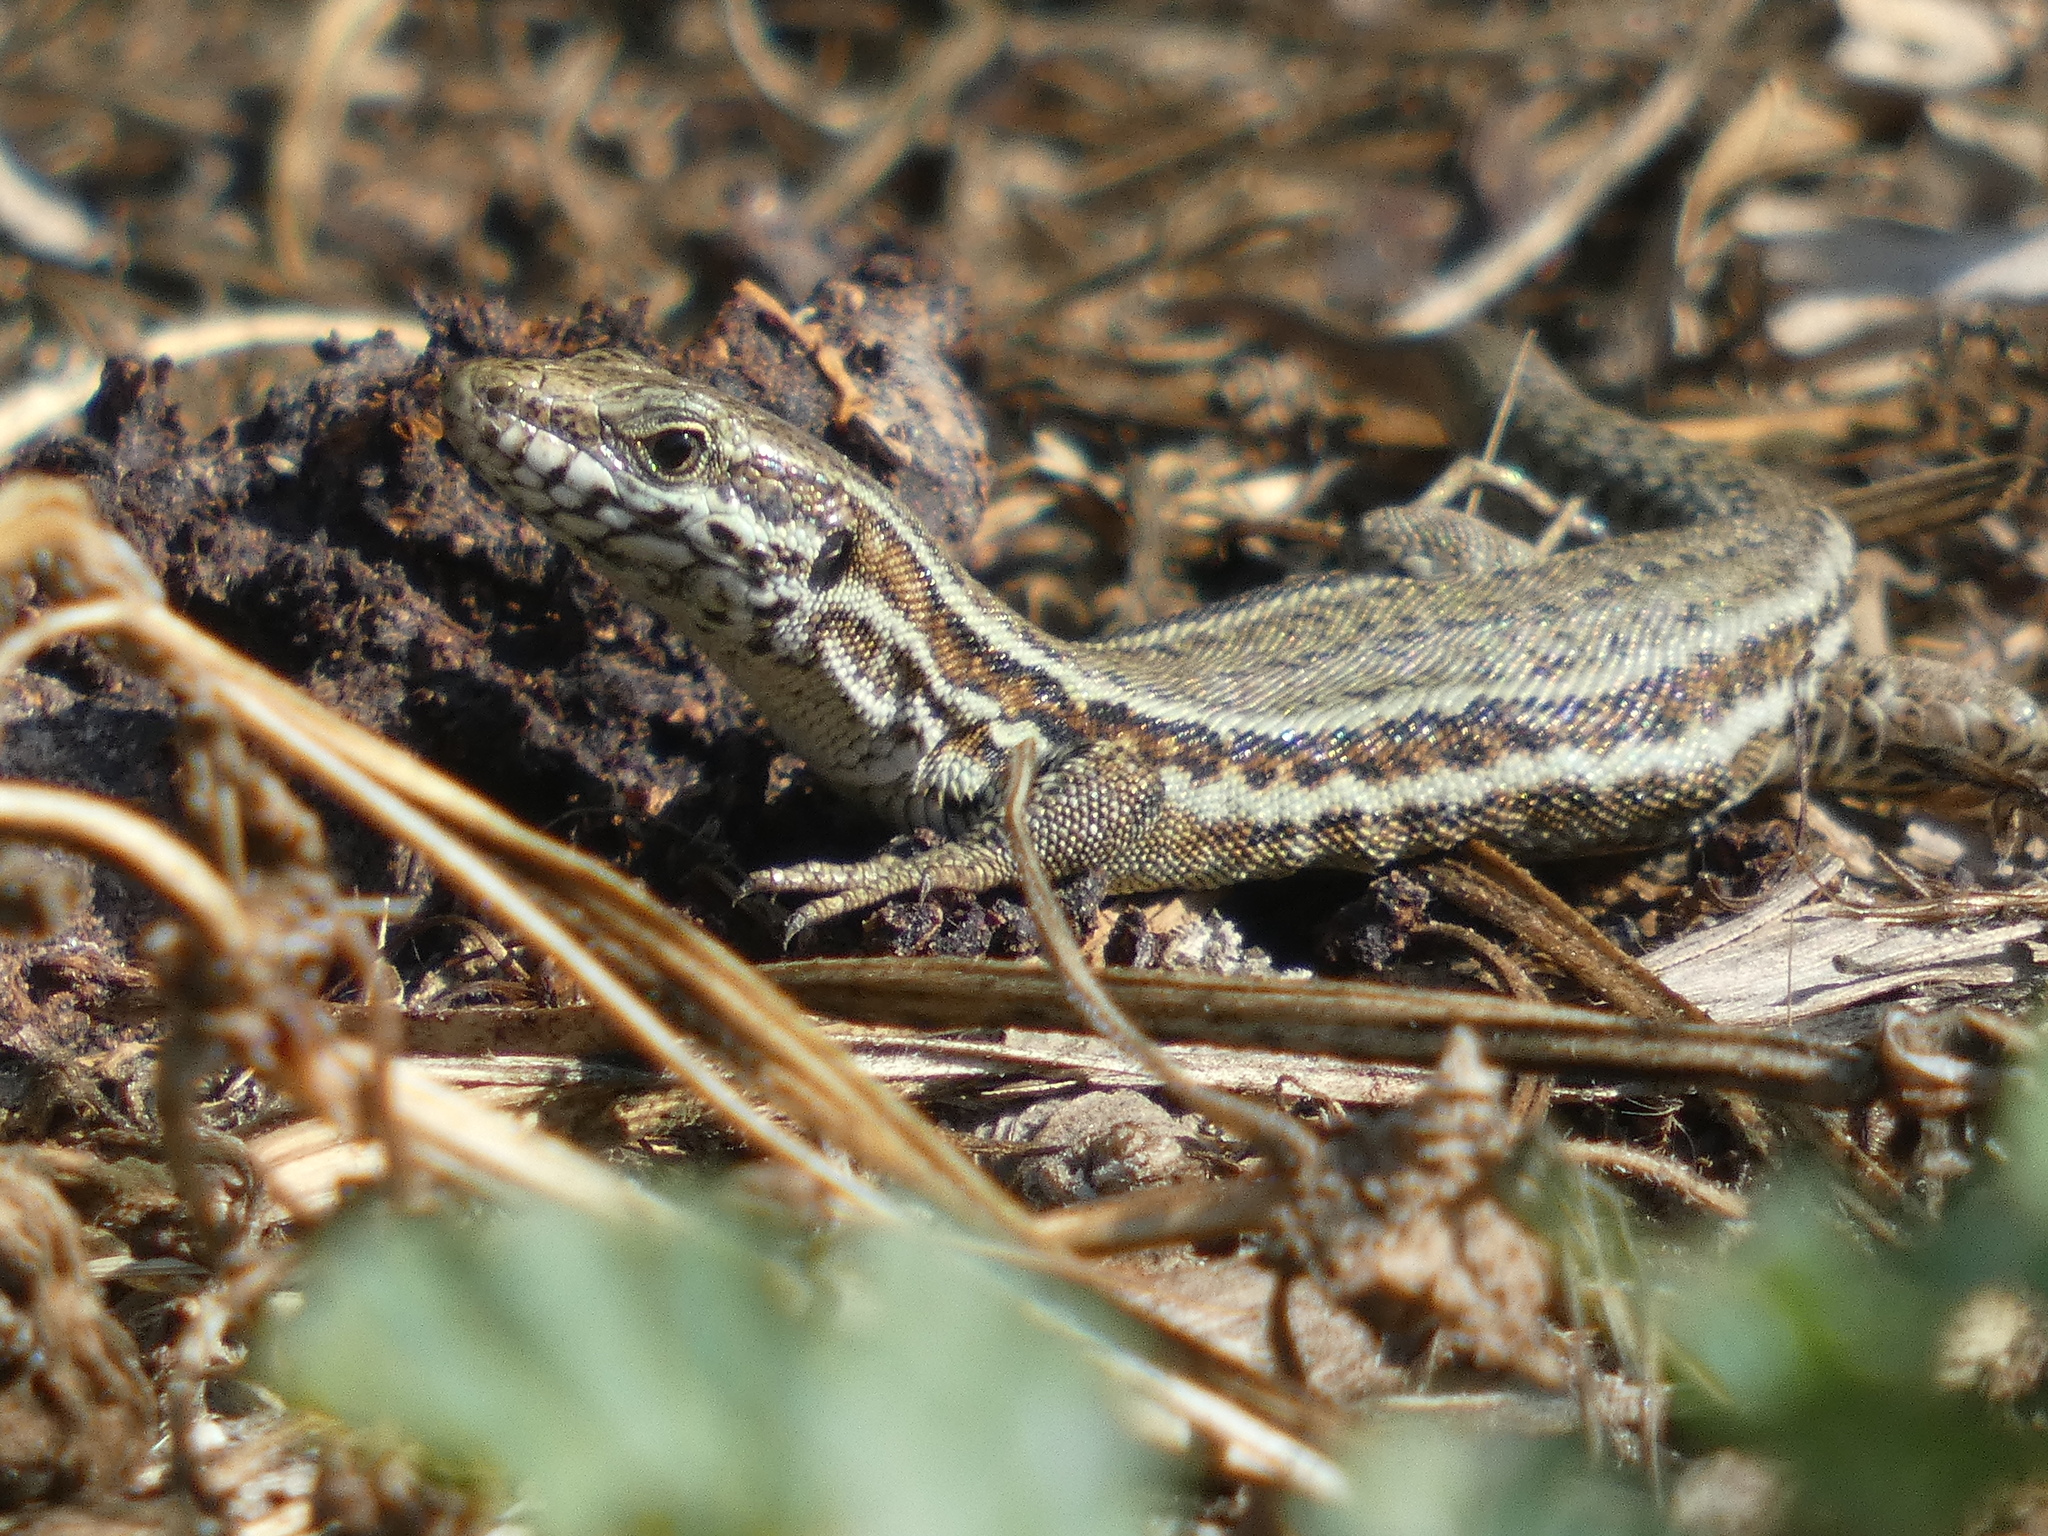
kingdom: Animalia
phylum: Chordata
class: Squamata
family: Lacertidae
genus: Podarcis
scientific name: Podarcis muralis
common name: Common wall lizard
